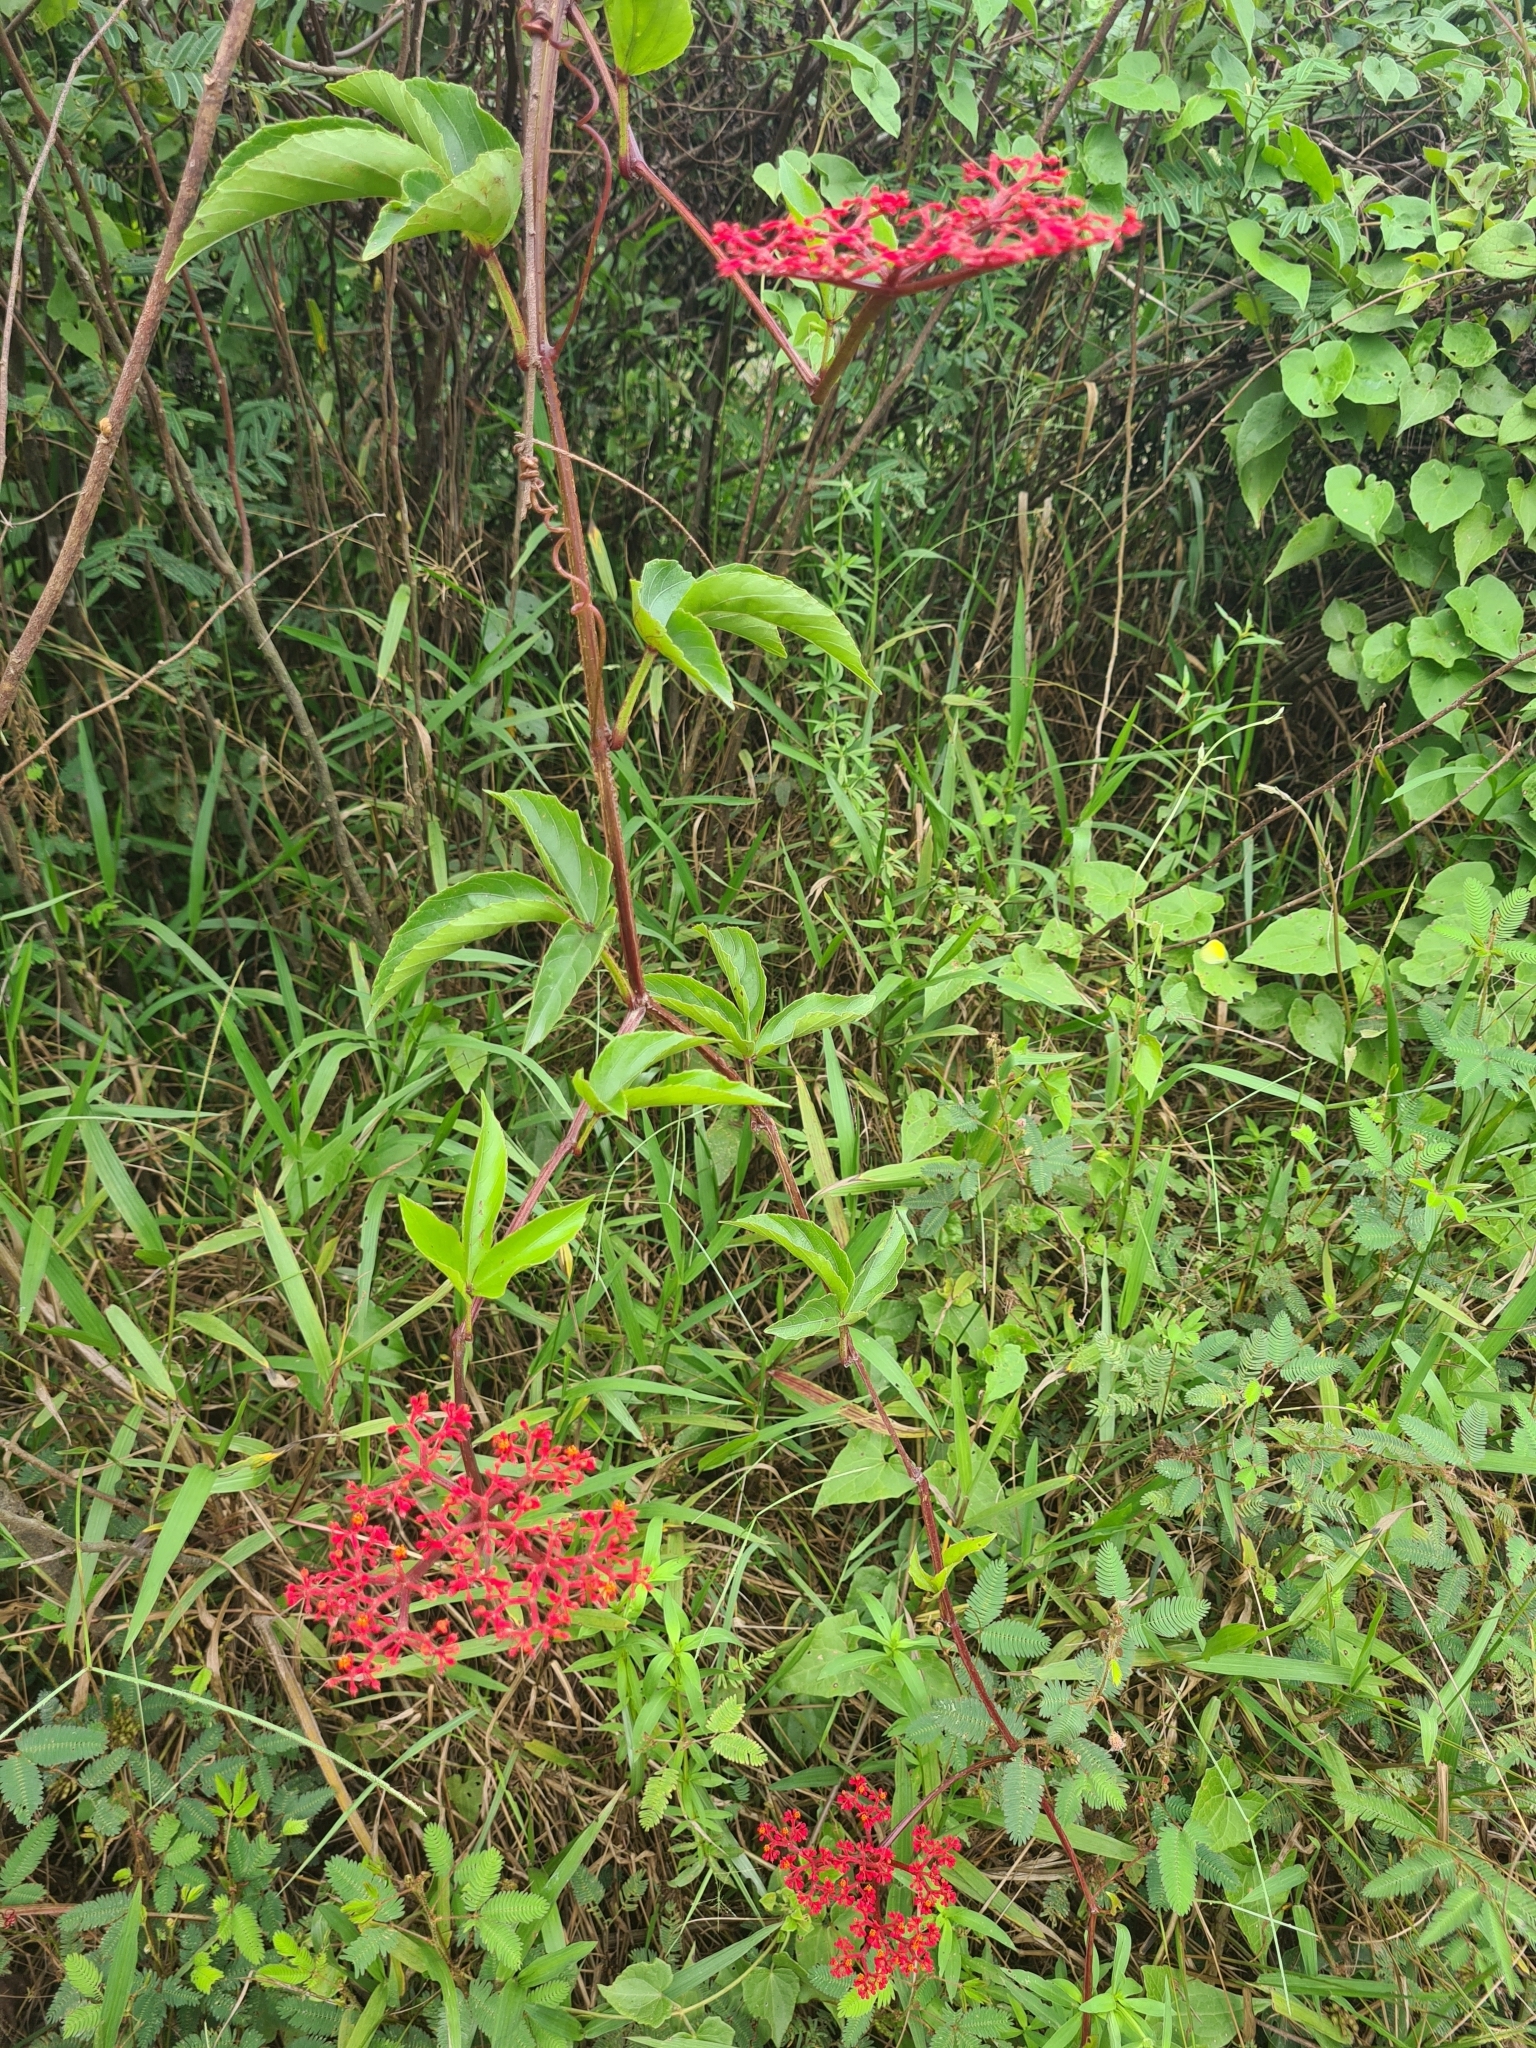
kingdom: Plantae
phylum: Tracheophyta
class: Magnoliopsida
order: Vitales
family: Vitaceae
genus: Cissus
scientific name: Cissus erosa
